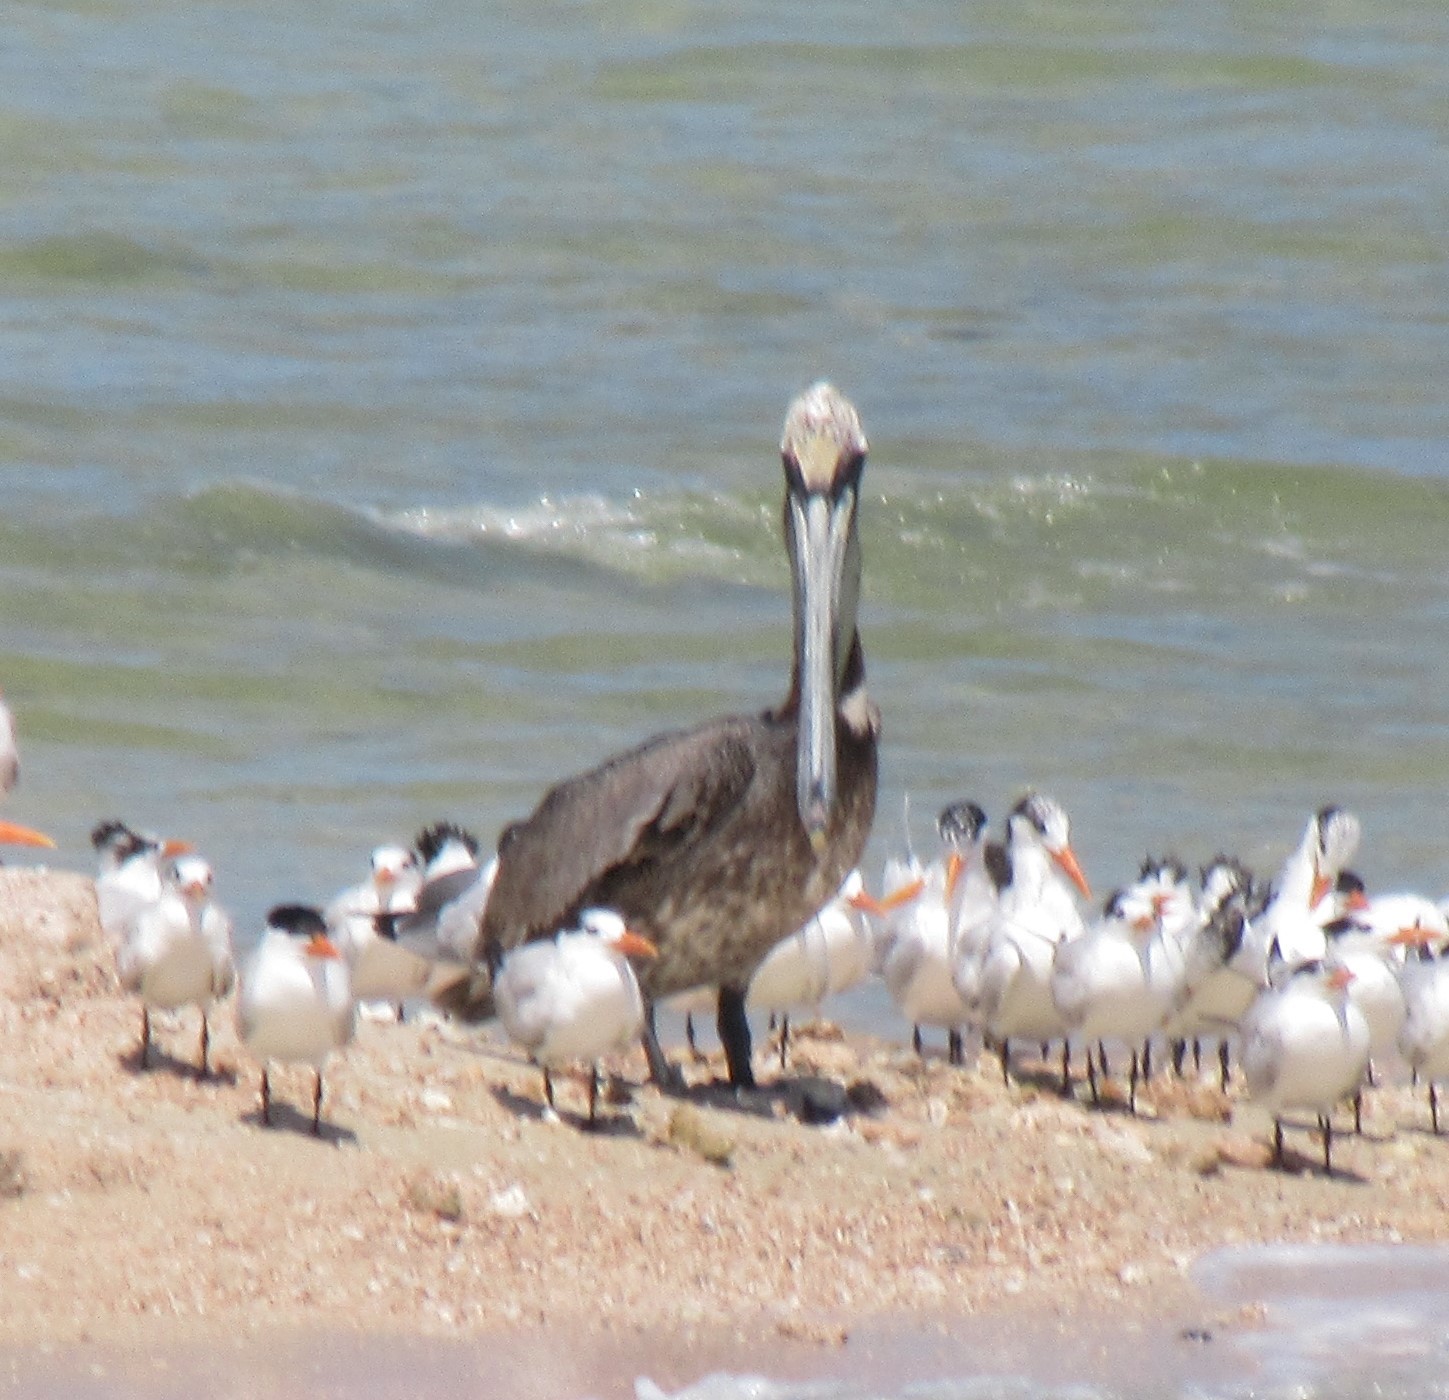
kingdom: Animalia
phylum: Chordata
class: Aves
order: Pelecaniformes
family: Pelecanidae
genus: Pelecanus
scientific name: Pelecanus occidentalis
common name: Brown pelican
